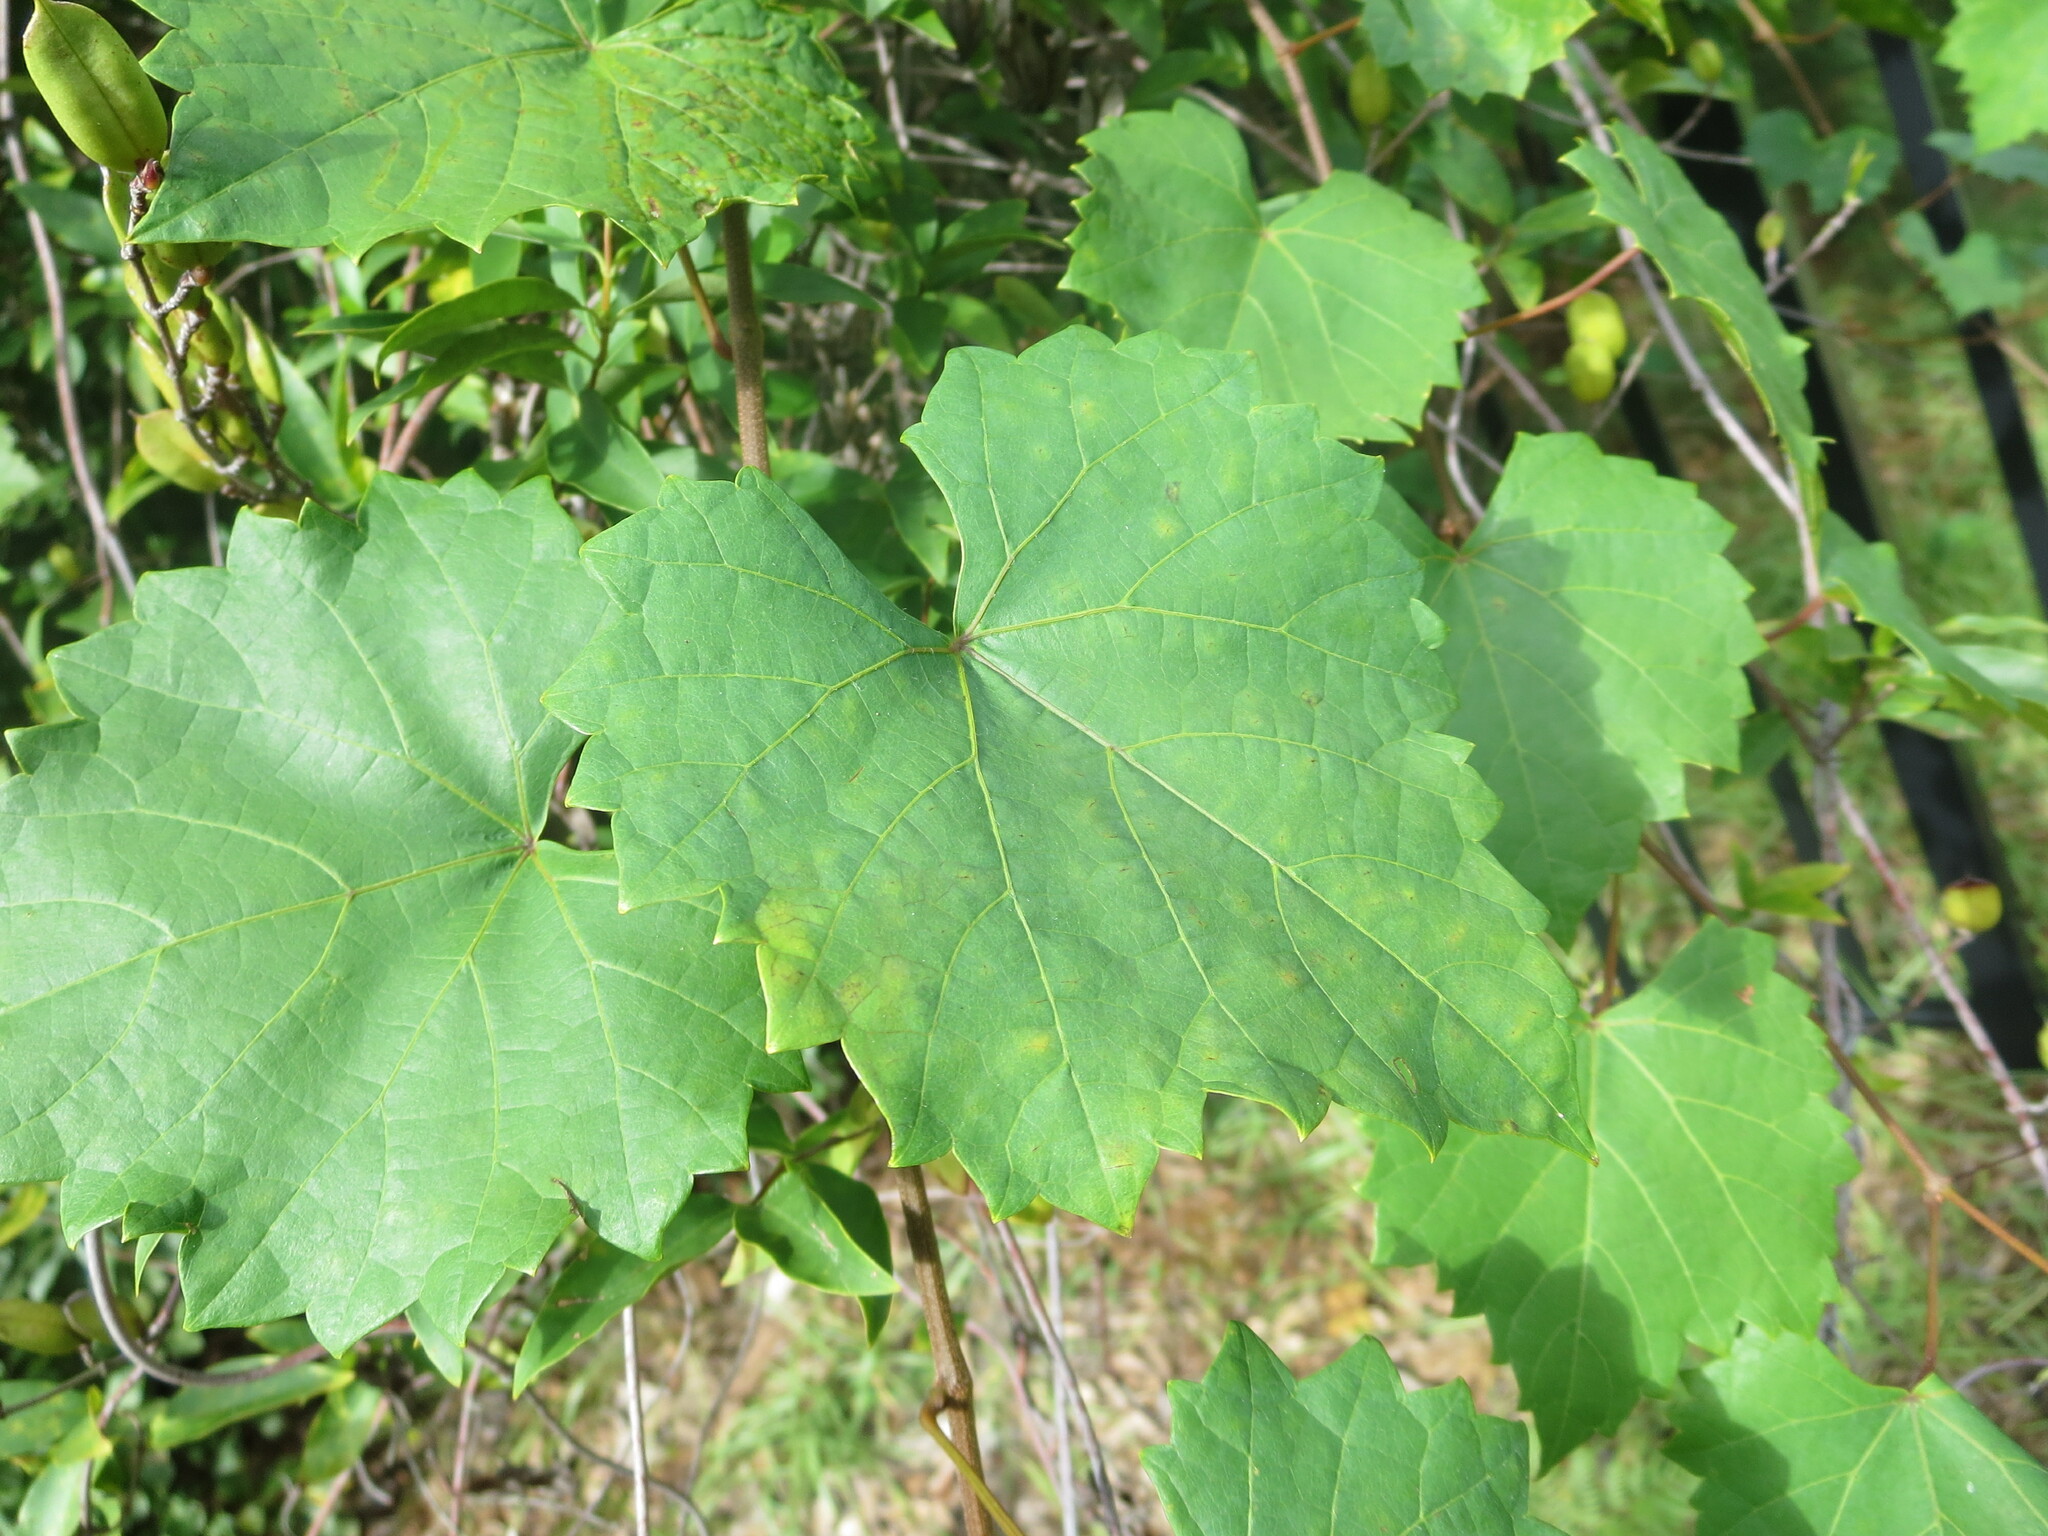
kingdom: Plantae
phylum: Tracheophyta
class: Magnoliopsida
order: Vitales
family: Vitaceae
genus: Vitis
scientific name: Vitis rotundifolia
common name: Muscadine grape
